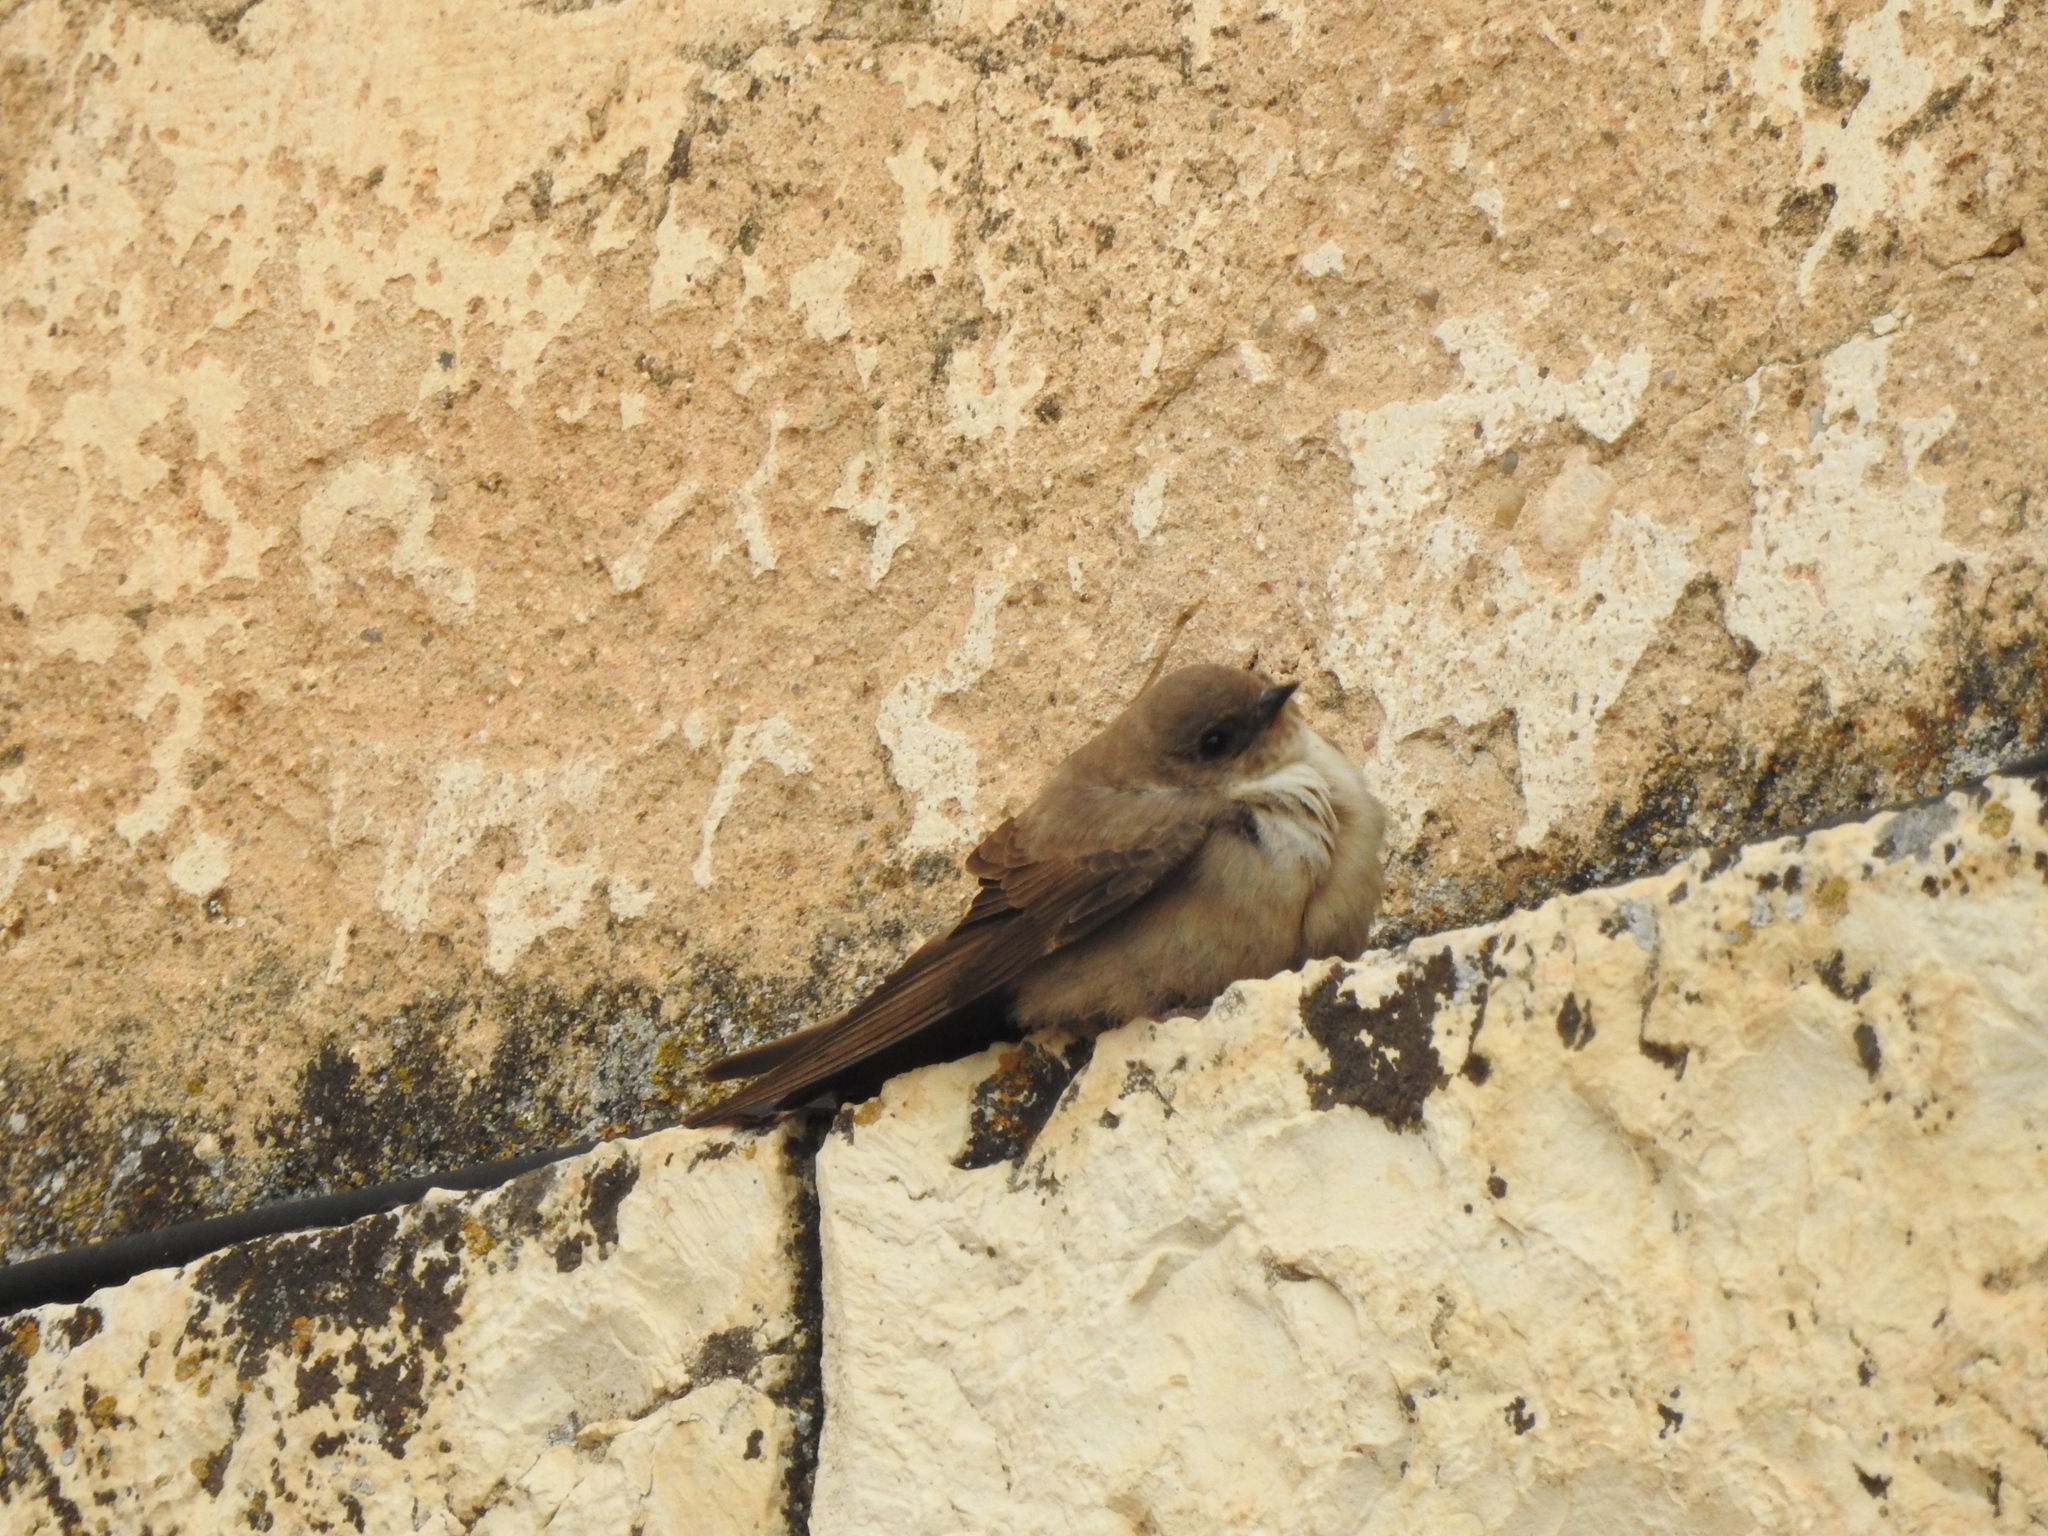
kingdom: Animalia
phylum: Chordata
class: Aves
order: Passeriformes
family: Hirundinidae
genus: Ptyonoprogne
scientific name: Ptyonoprogne rupestris
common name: Eurasian crag martin
